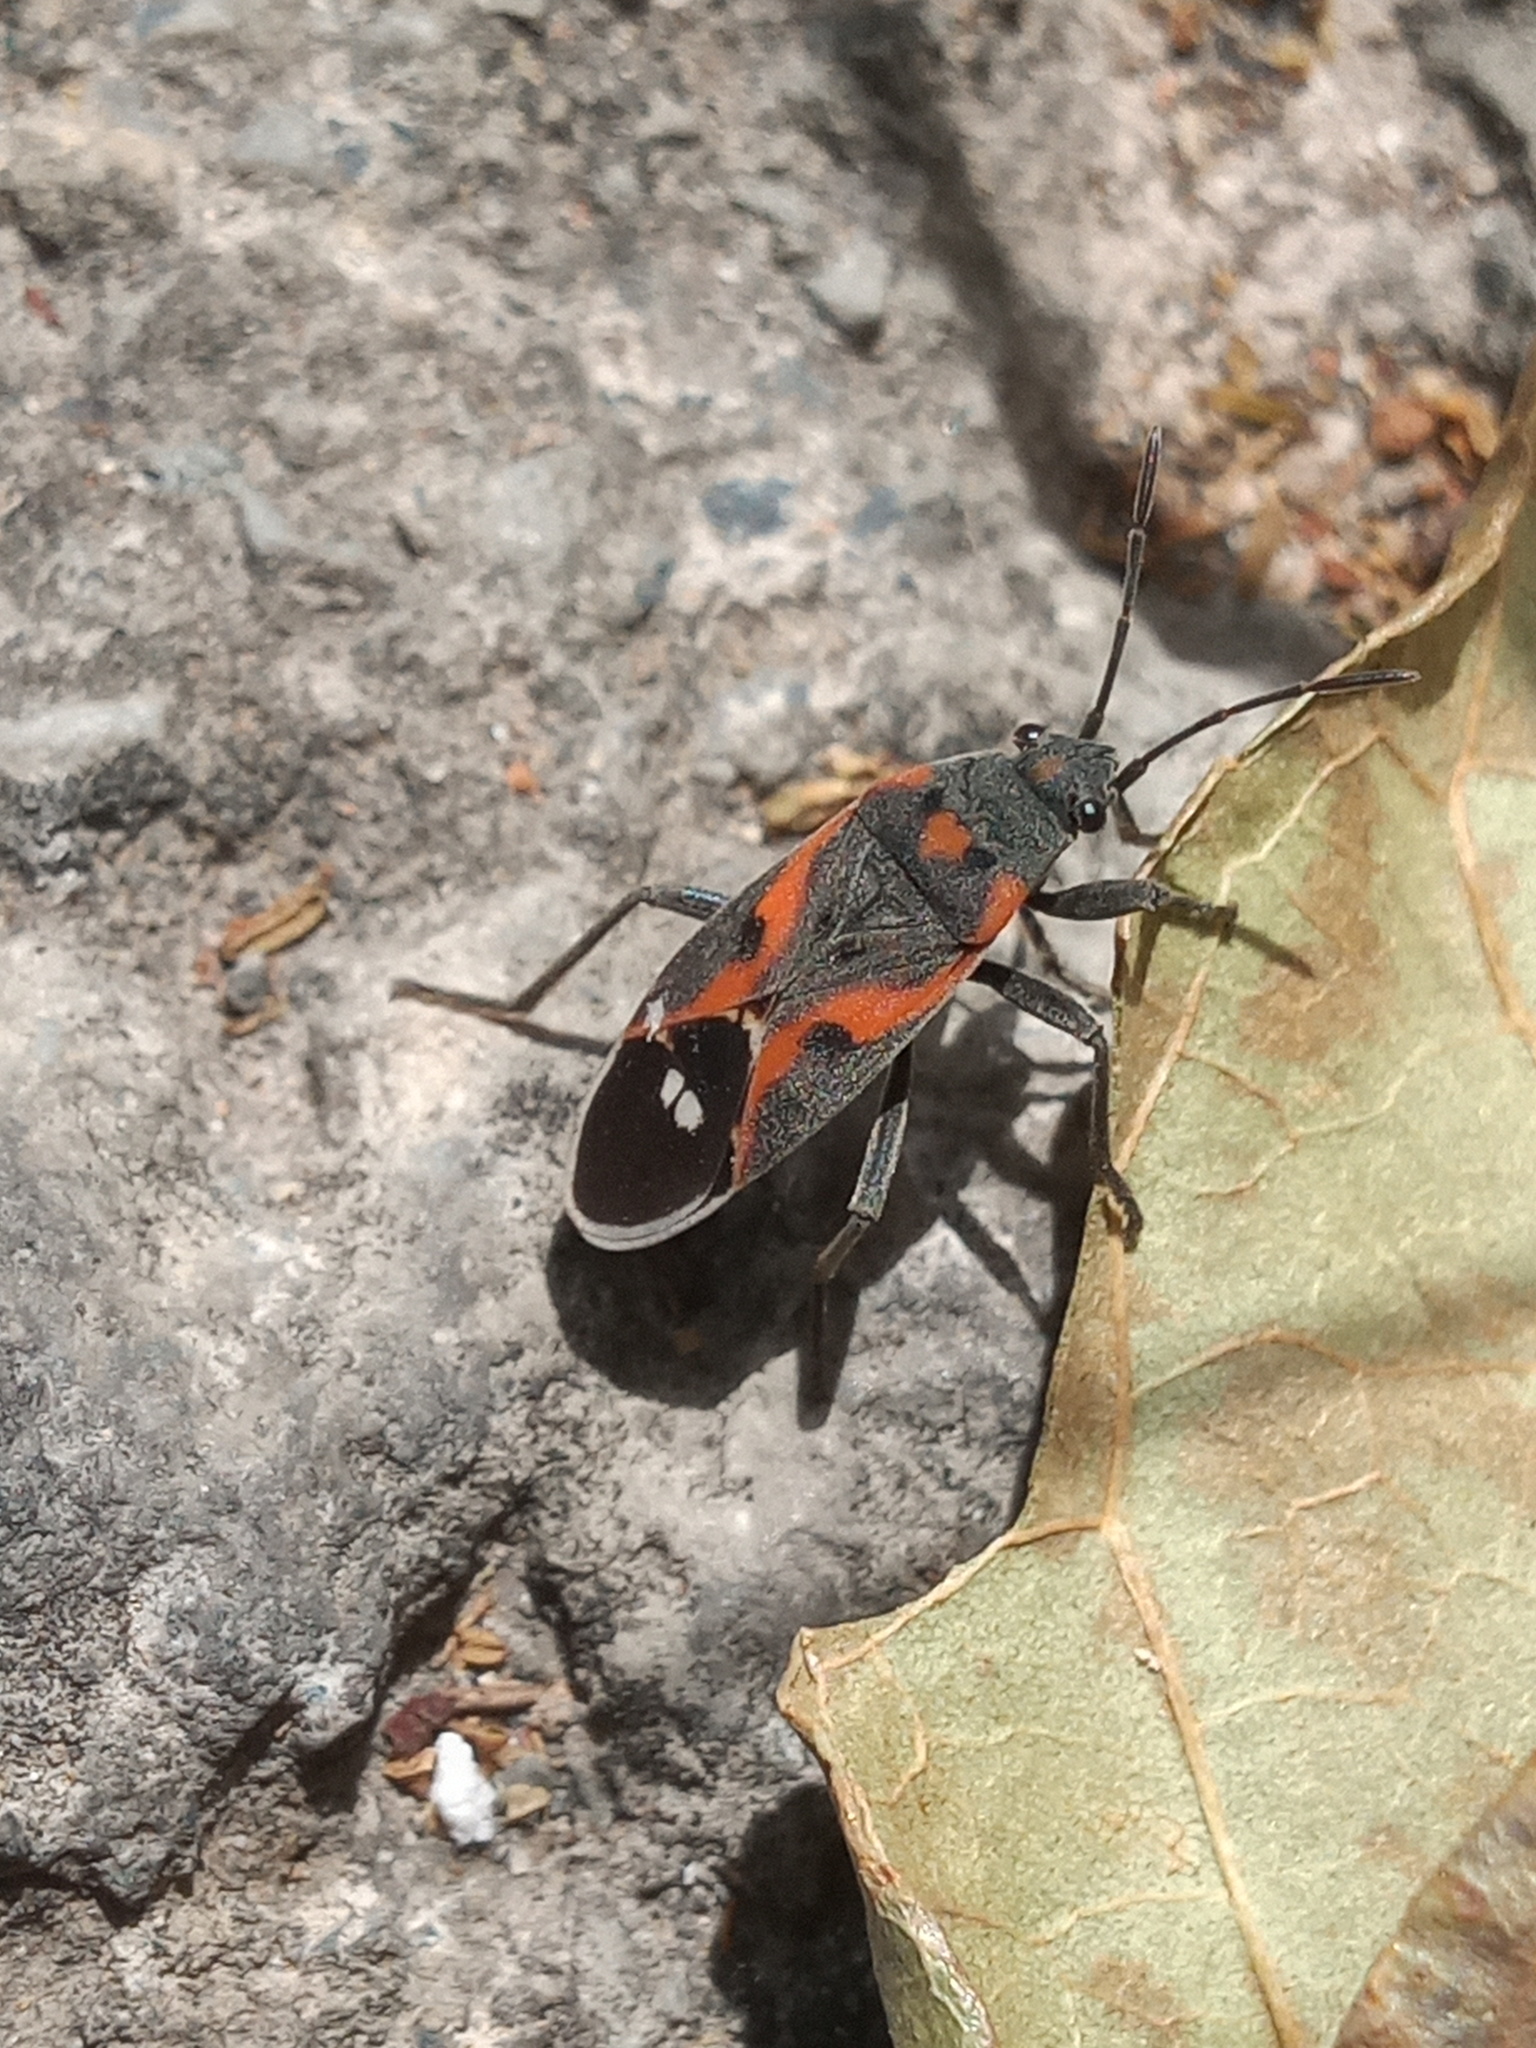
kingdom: Animalia
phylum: Arthropoda
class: Insecta
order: Hemiptera
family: Lygaeidae
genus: Lygaeus
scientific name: Lygaeus kalmii
